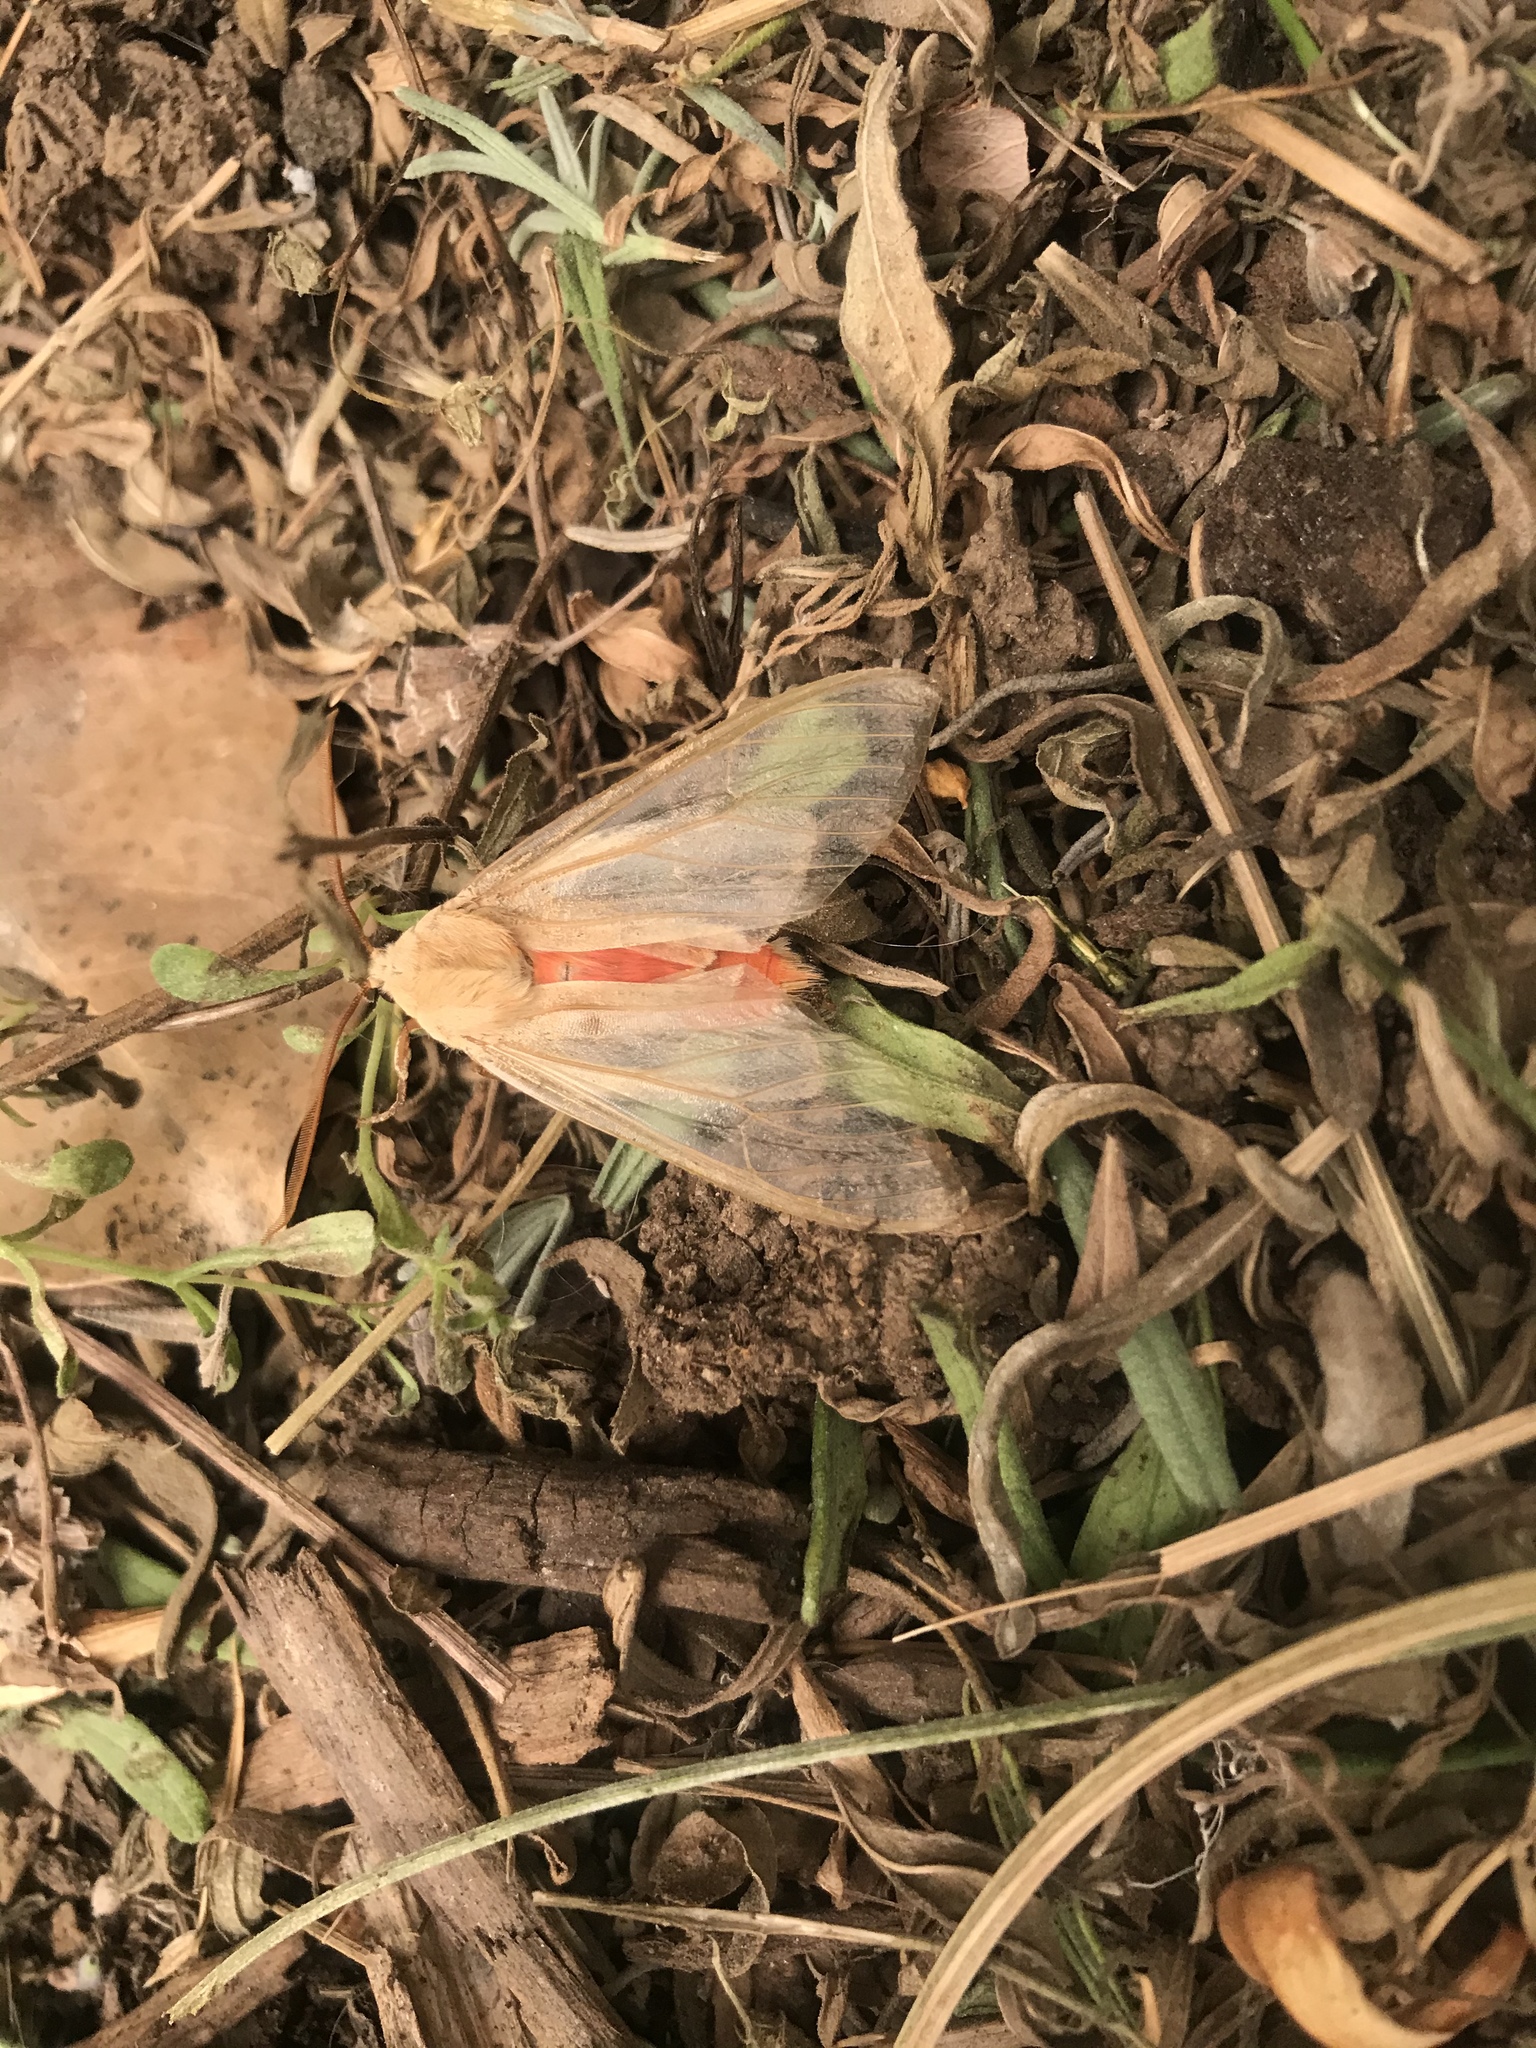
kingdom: Animalia
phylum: Arthropoda
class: Insecta
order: Lepidoptera
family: Erebidae
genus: Hemihyalea
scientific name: Hemihyalea edwardsii
